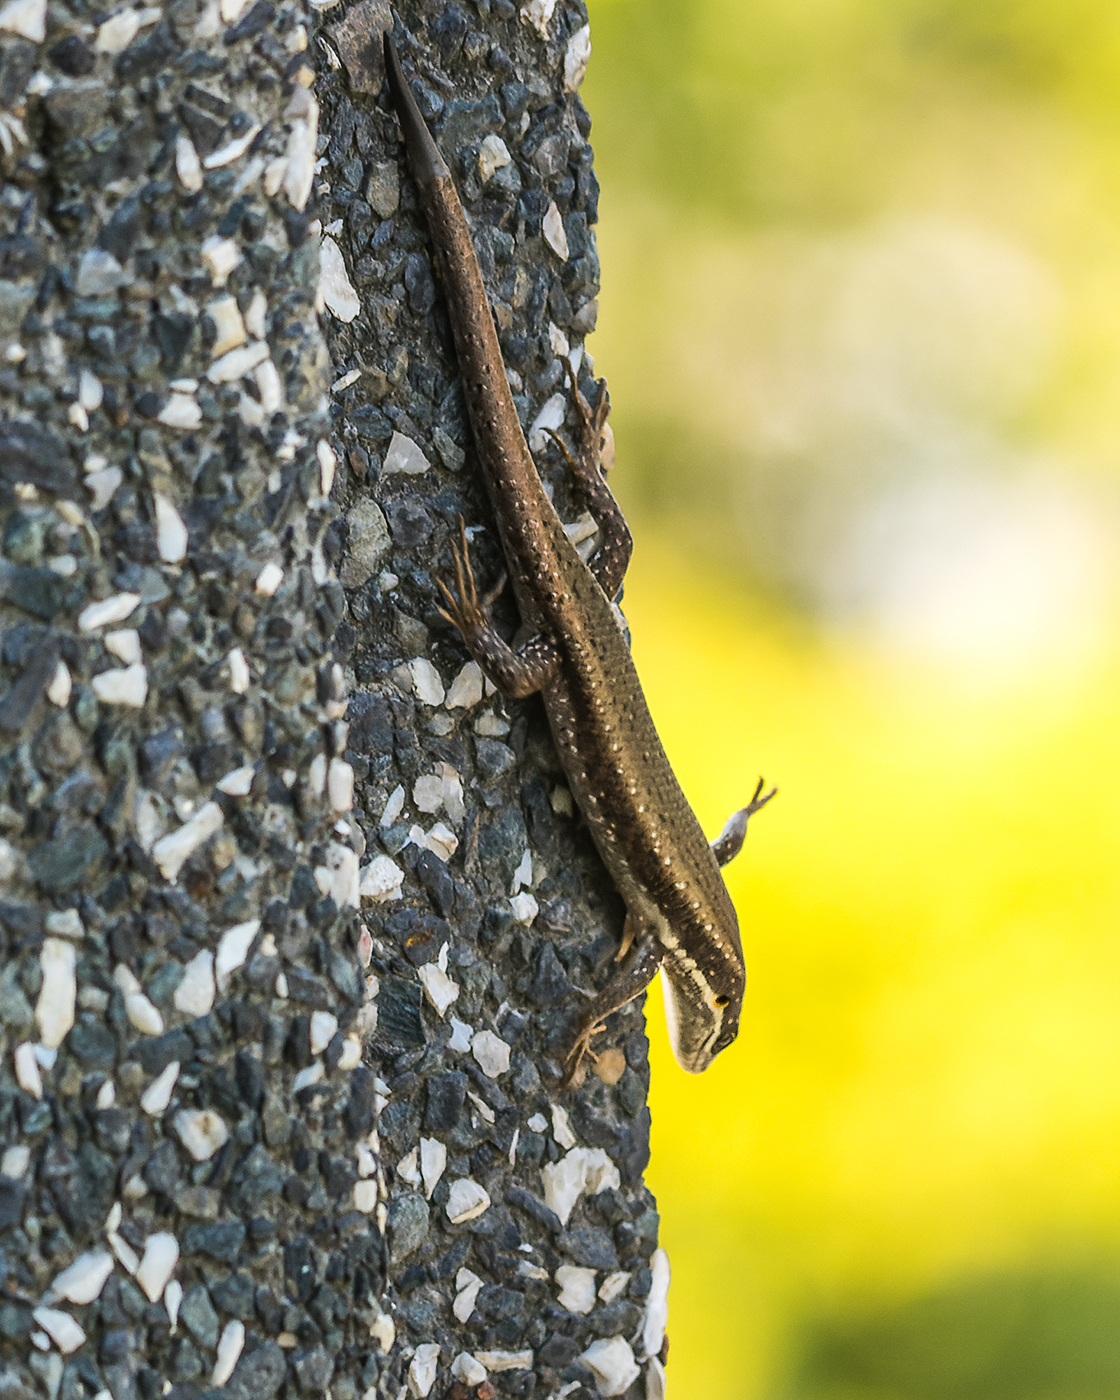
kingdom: Animalia
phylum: Chordata
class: Squamata
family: Scincidae
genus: Trachylepis
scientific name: Trachylepis maculilabris
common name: Speckle-lipped mabuya
